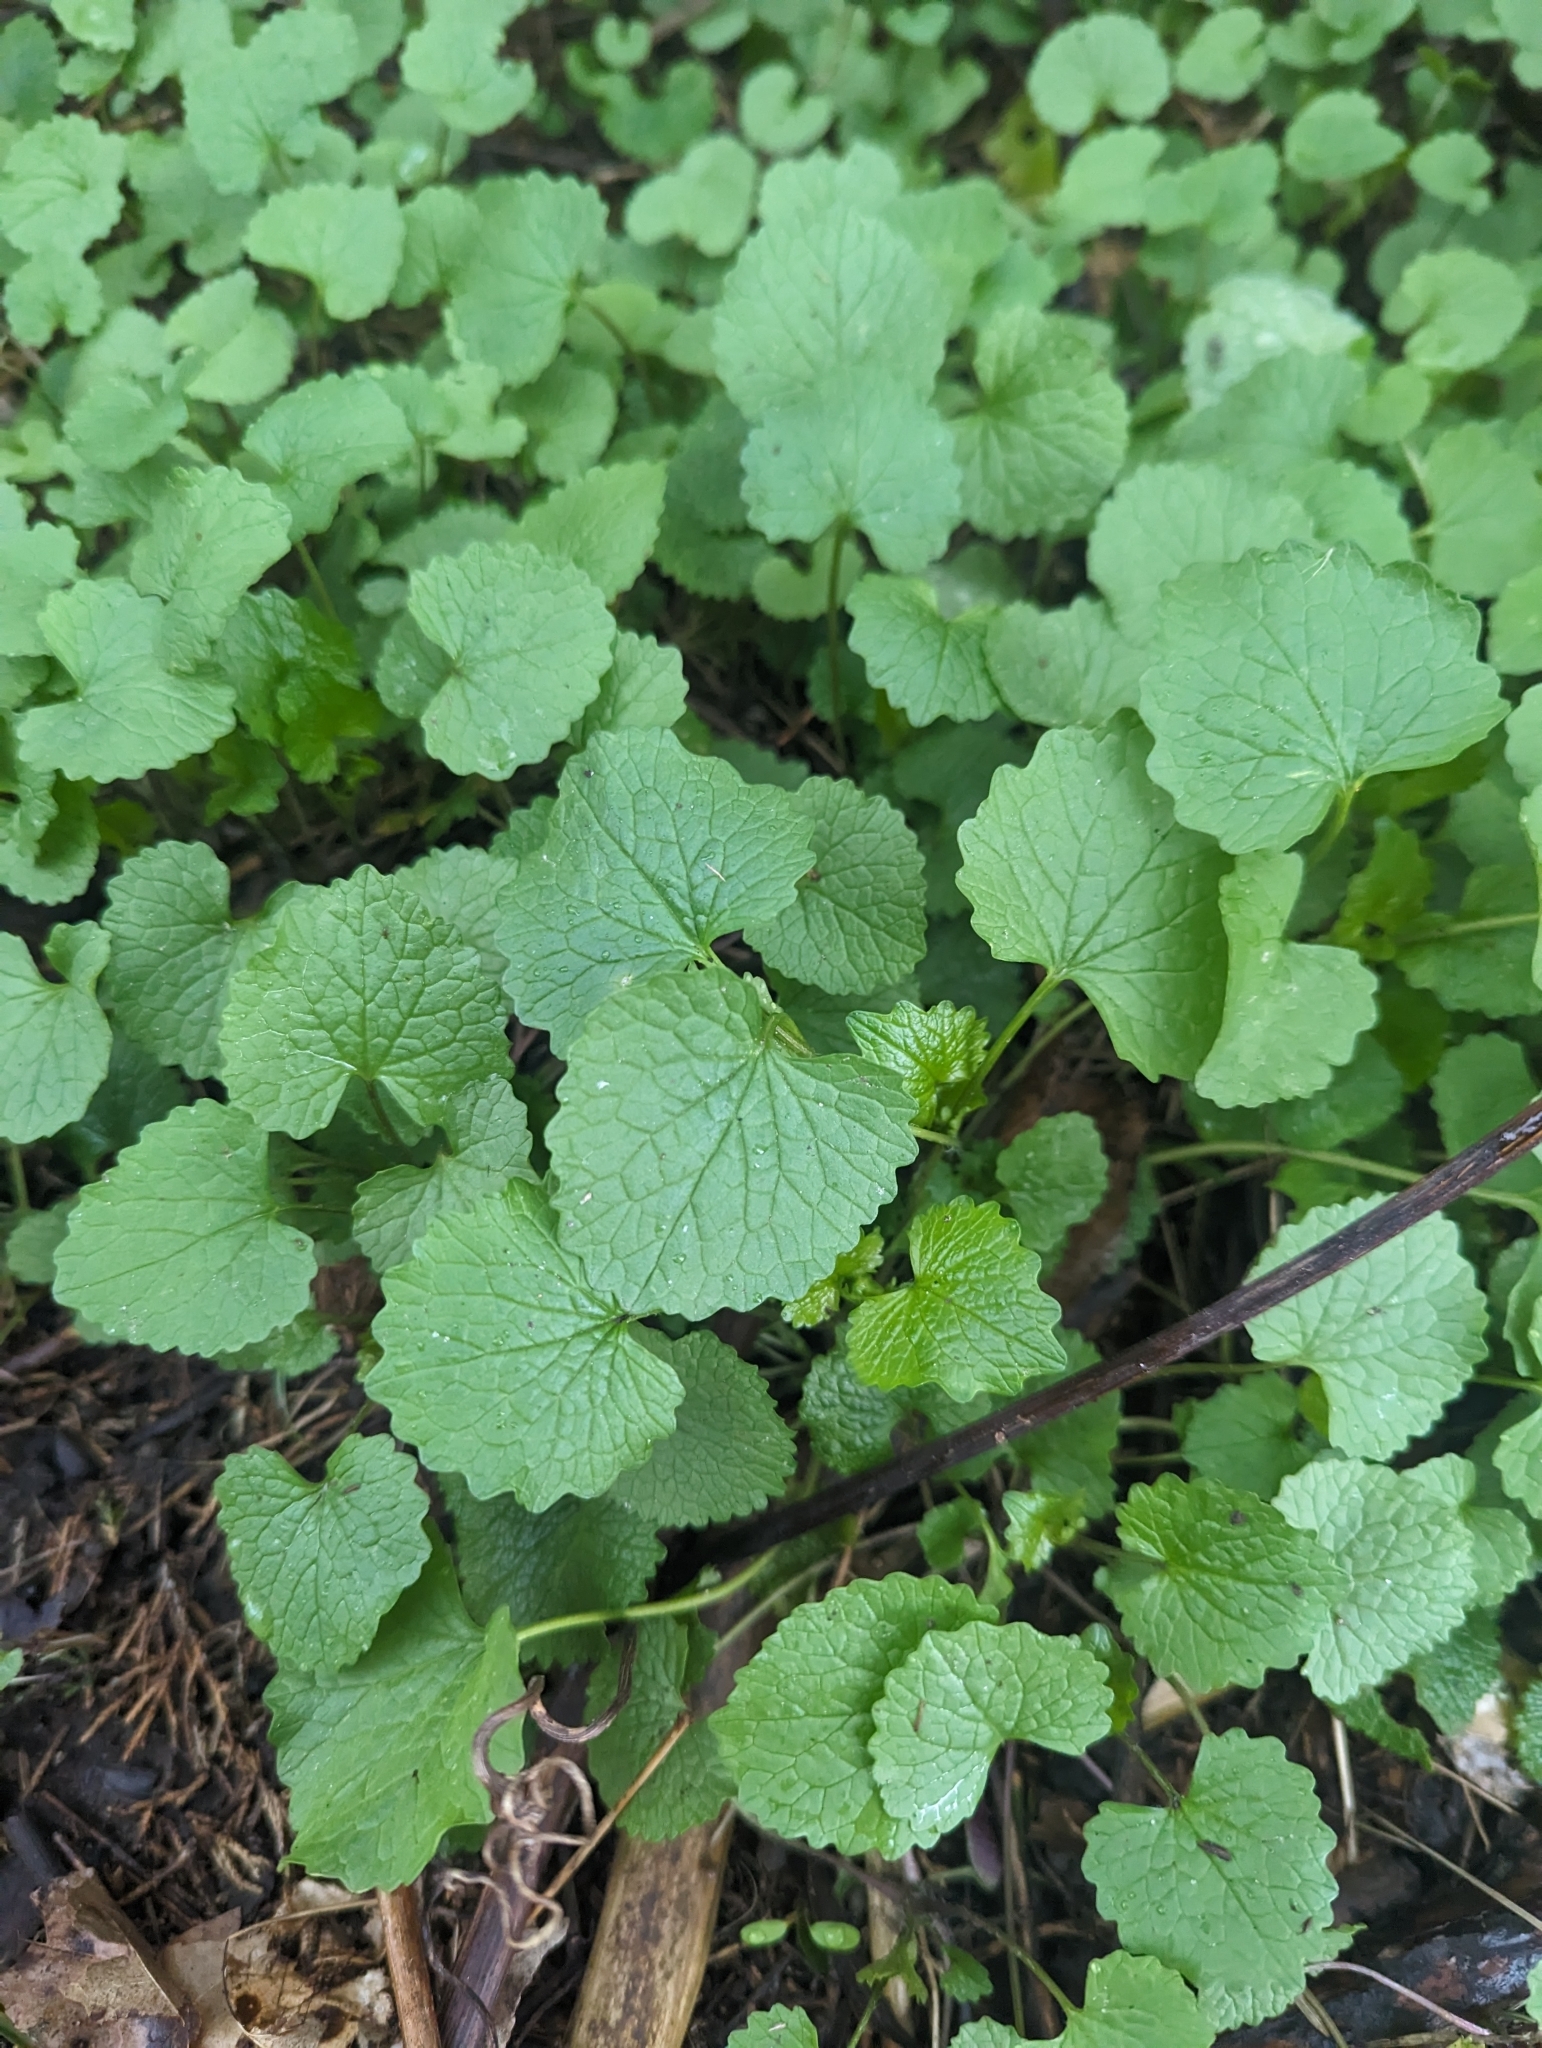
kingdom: Plantae
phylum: Tracheophyta
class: Magnoliopsida
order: Brassicales
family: Brassicaceae
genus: Alliaria
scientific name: Alliaria petiolata
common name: Garlic mustard
